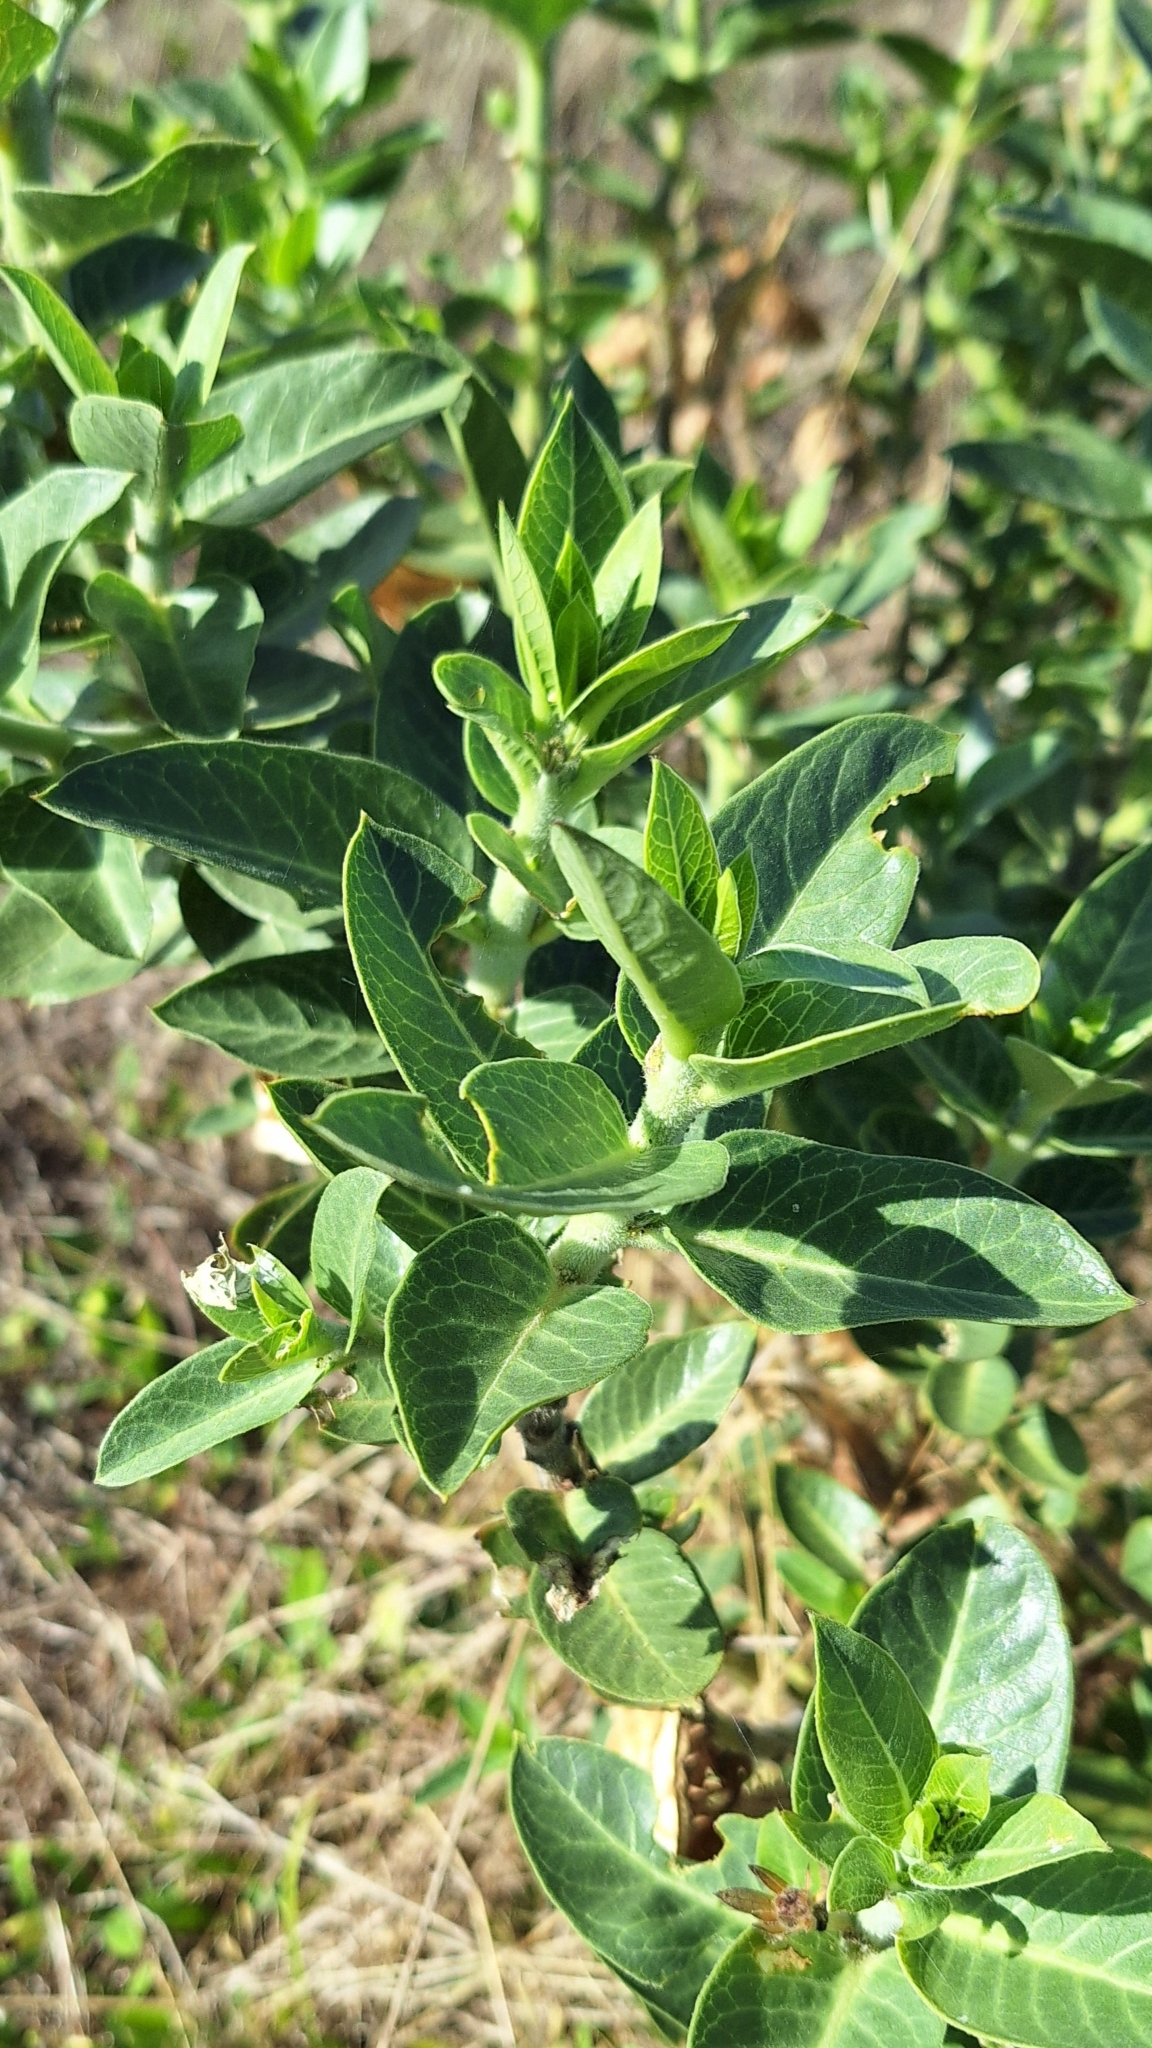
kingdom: Plantae
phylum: Tracheophyta
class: Magnoliopsida
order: Gentianales
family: Apocynaceae
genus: Gomphocarpus
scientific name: Gomphocarpus cancellatus
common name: Wild cotton
